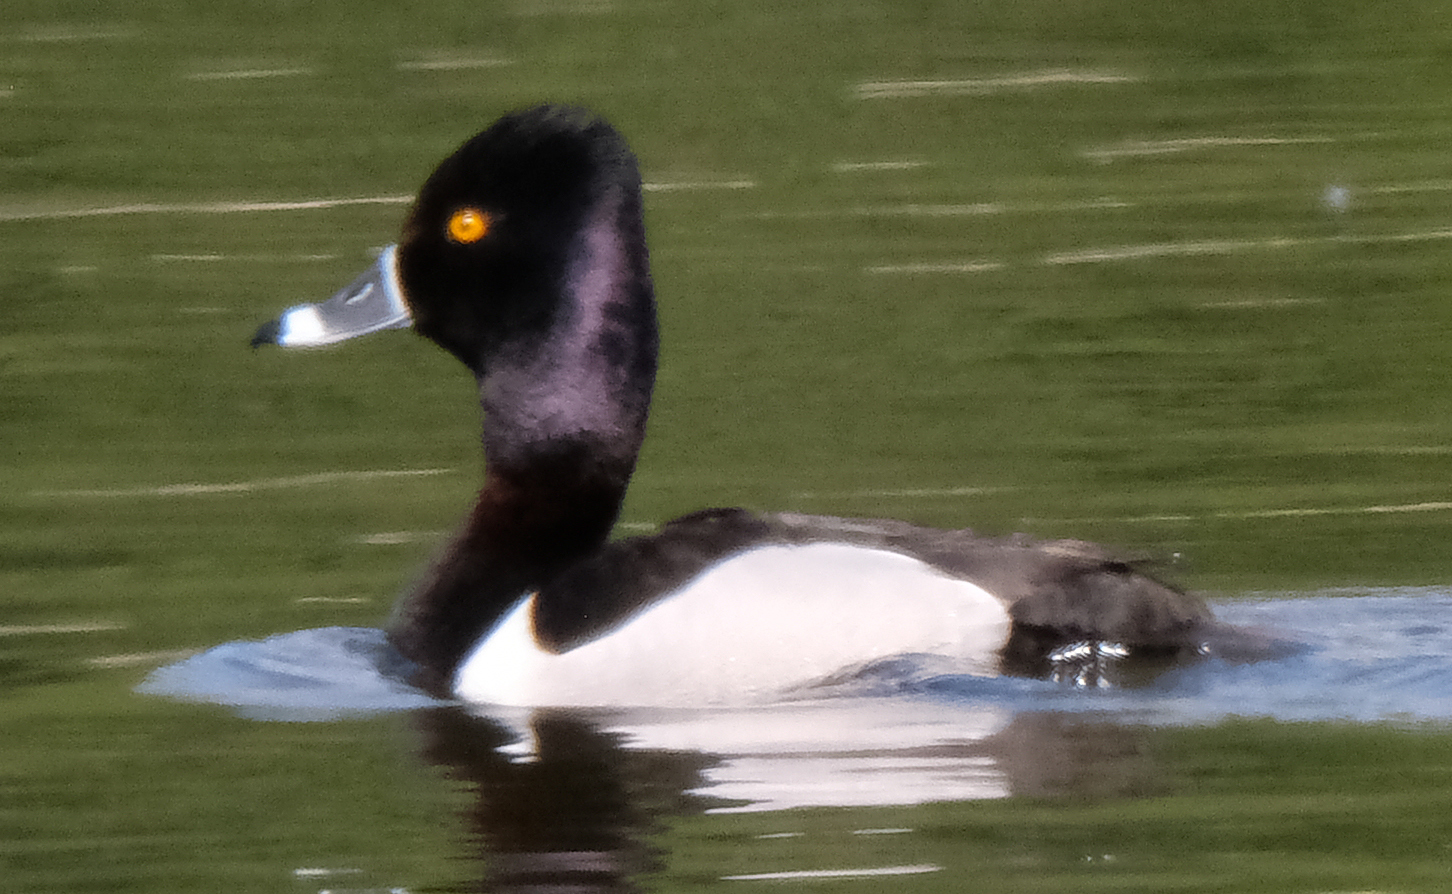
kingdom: Animalia
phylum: Chordata
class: Aves
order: Anseriformes
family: Anatidae
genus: Aythya
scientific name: Aythya collaris
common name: Ring-necked duck
